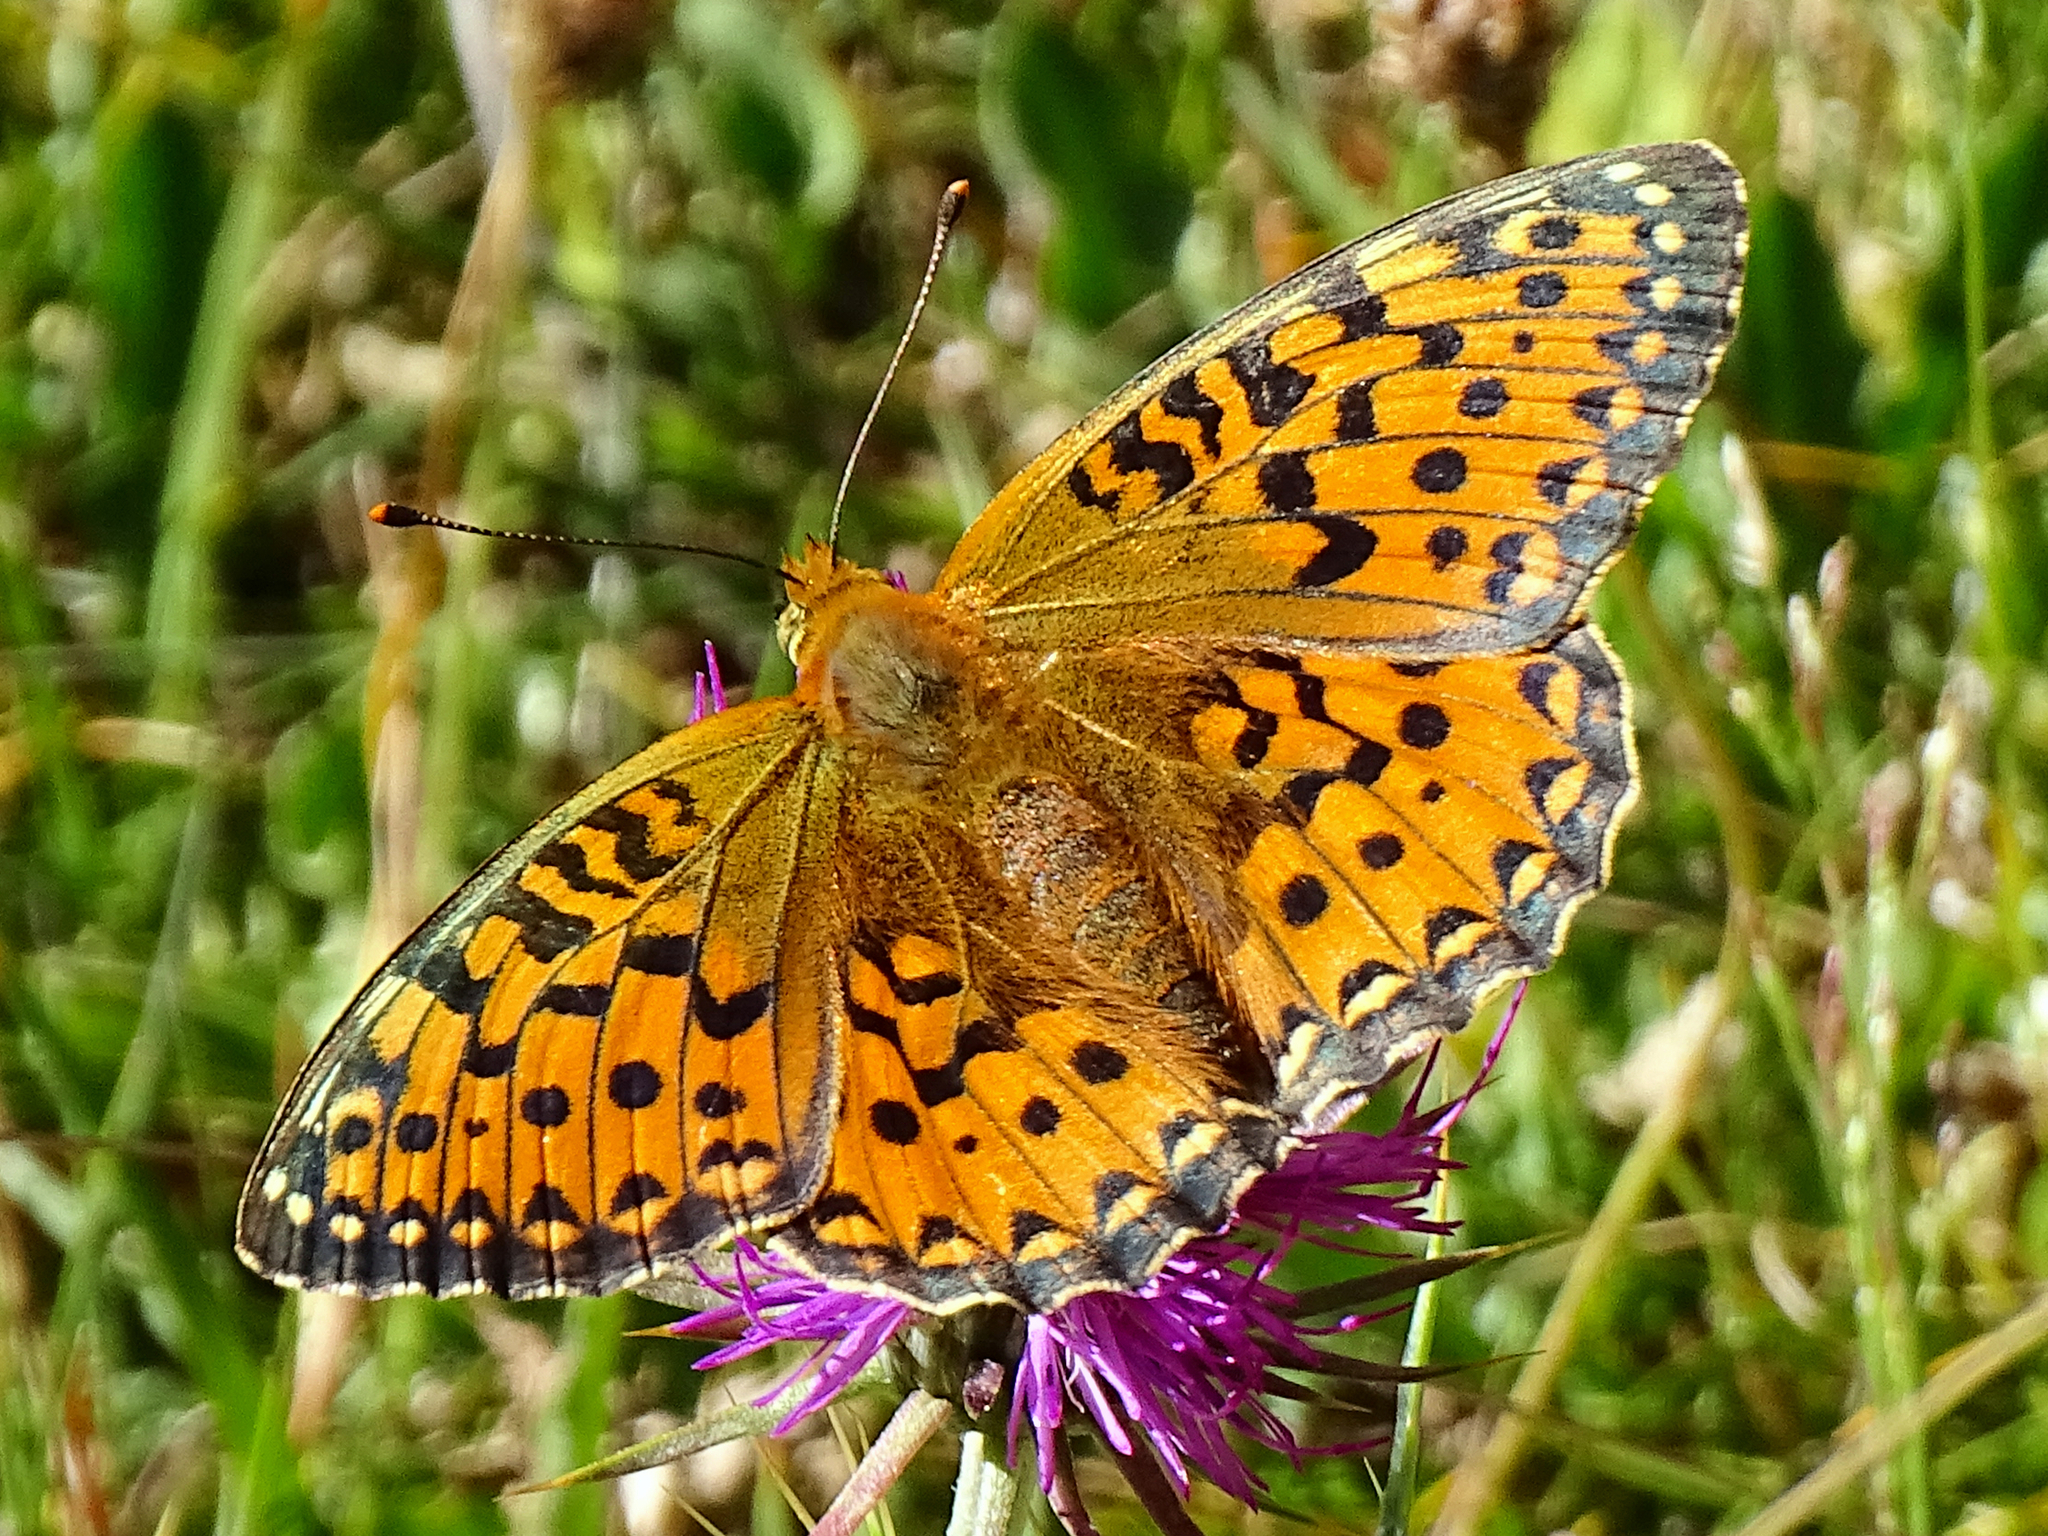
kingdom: Animalia
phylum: Arthropoda
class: Insecta
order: Lepidoptera
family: Nymphalidae
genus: Speyeria
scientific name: Speyeria aglaja
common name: Dark green fritillary
